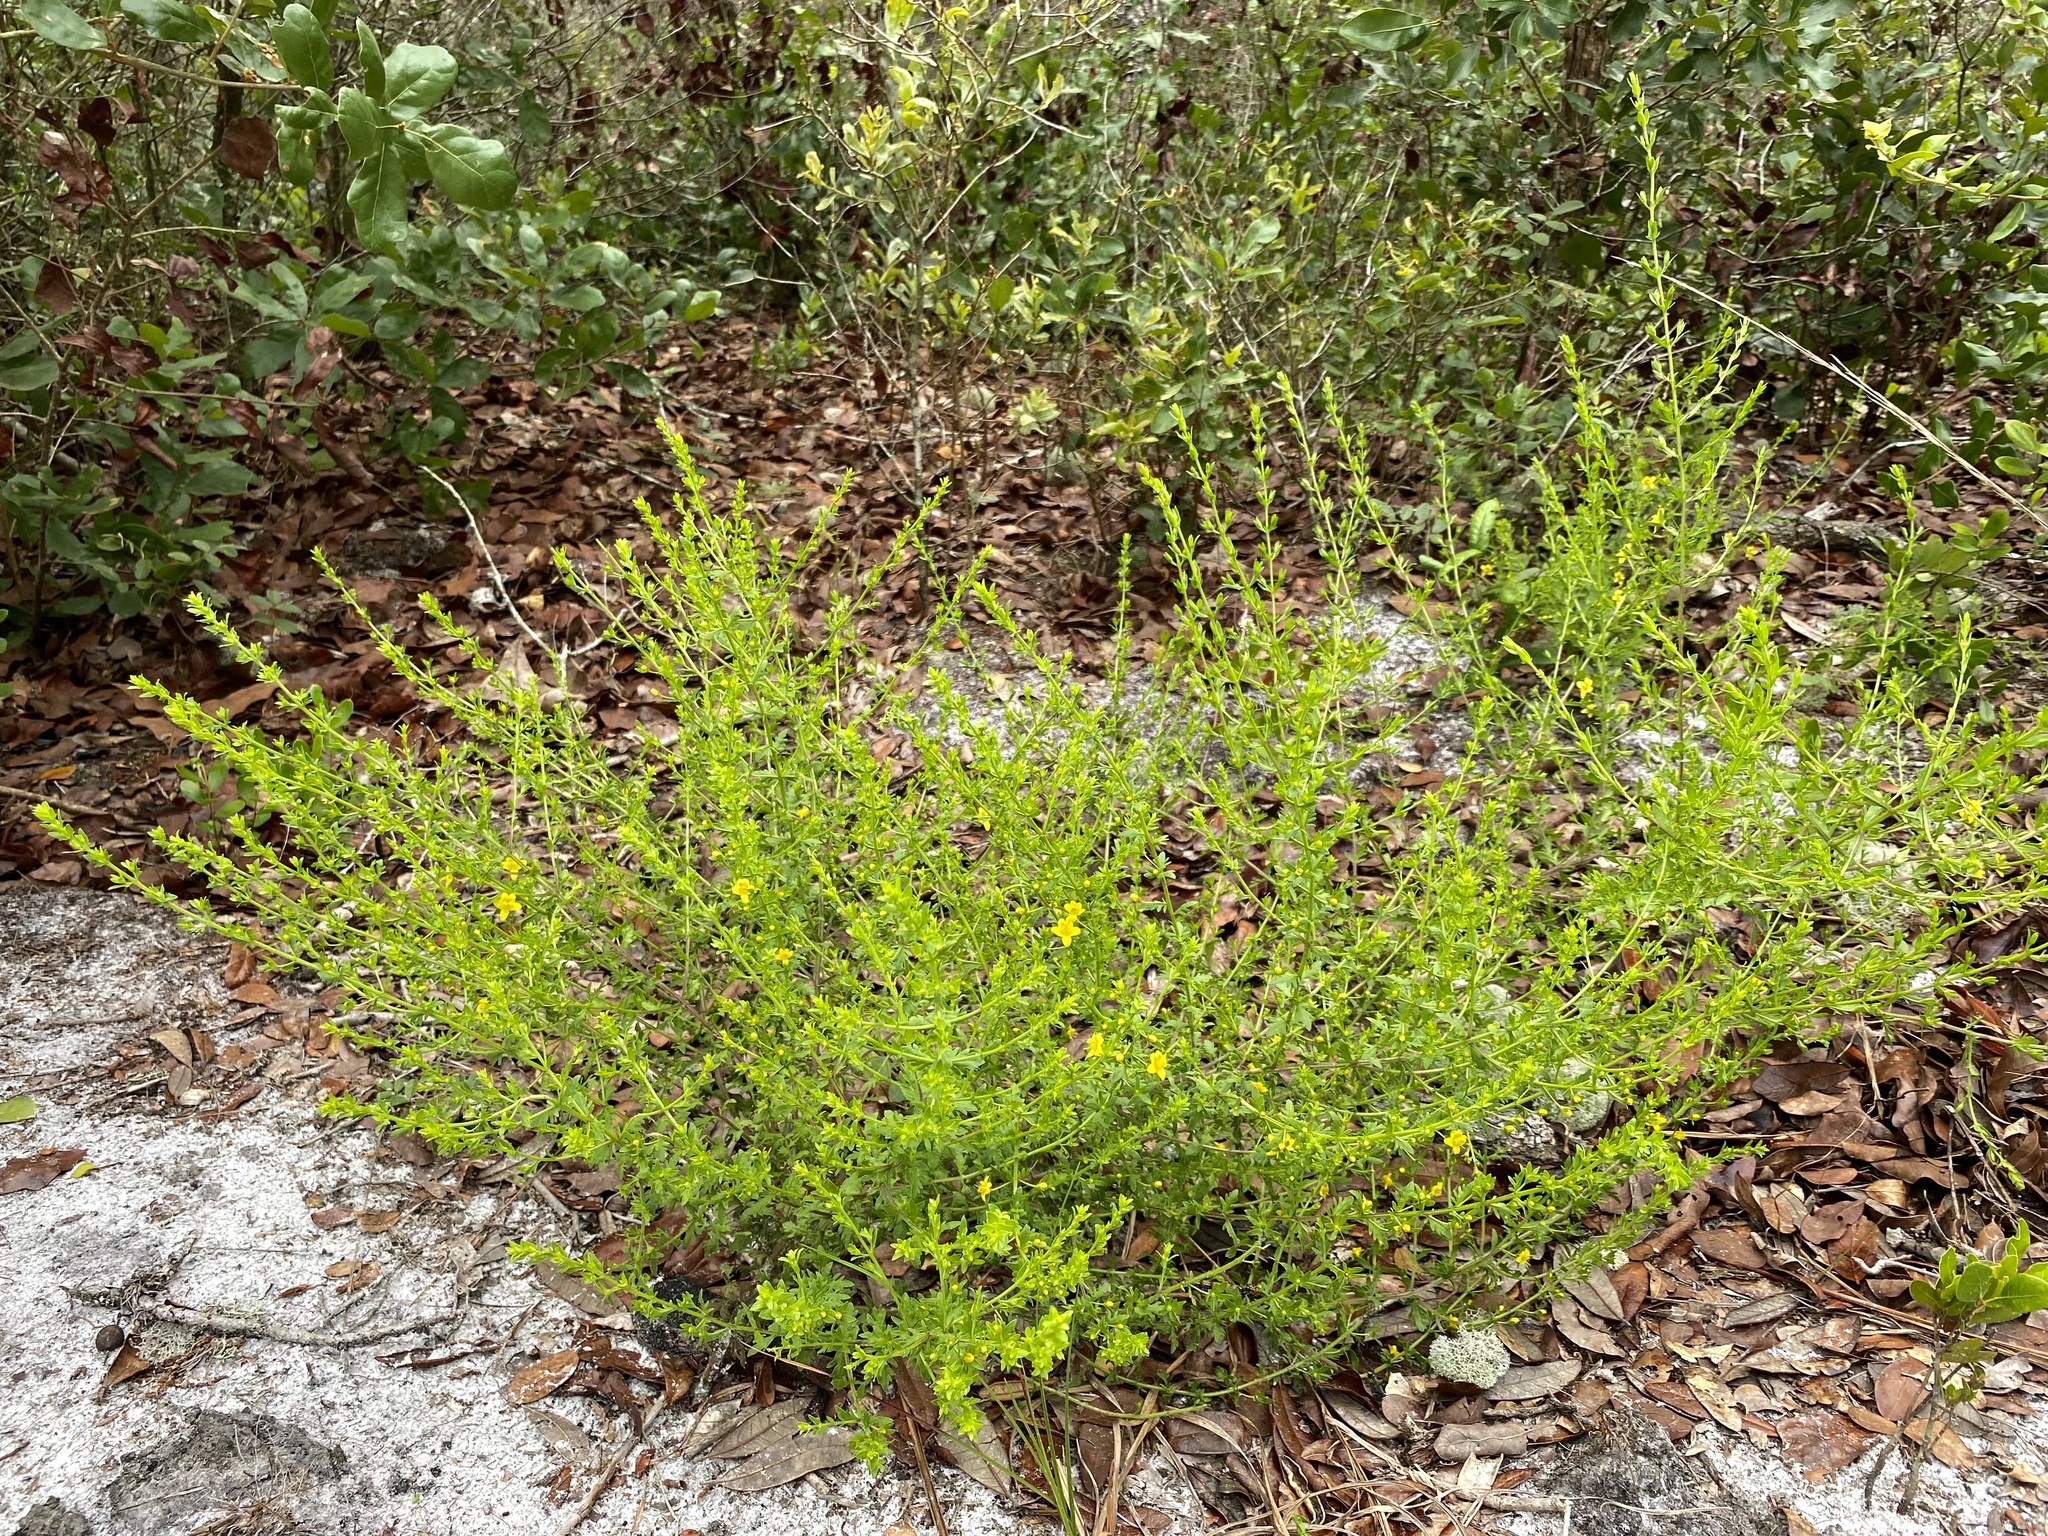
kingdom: Plantae
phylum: Tracheophyta
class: Magnoliopsida
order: Lamiales
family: Orobanchaceae
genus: Seymeria
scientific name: Seymeria pectinata
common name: Piedmont black-senna
